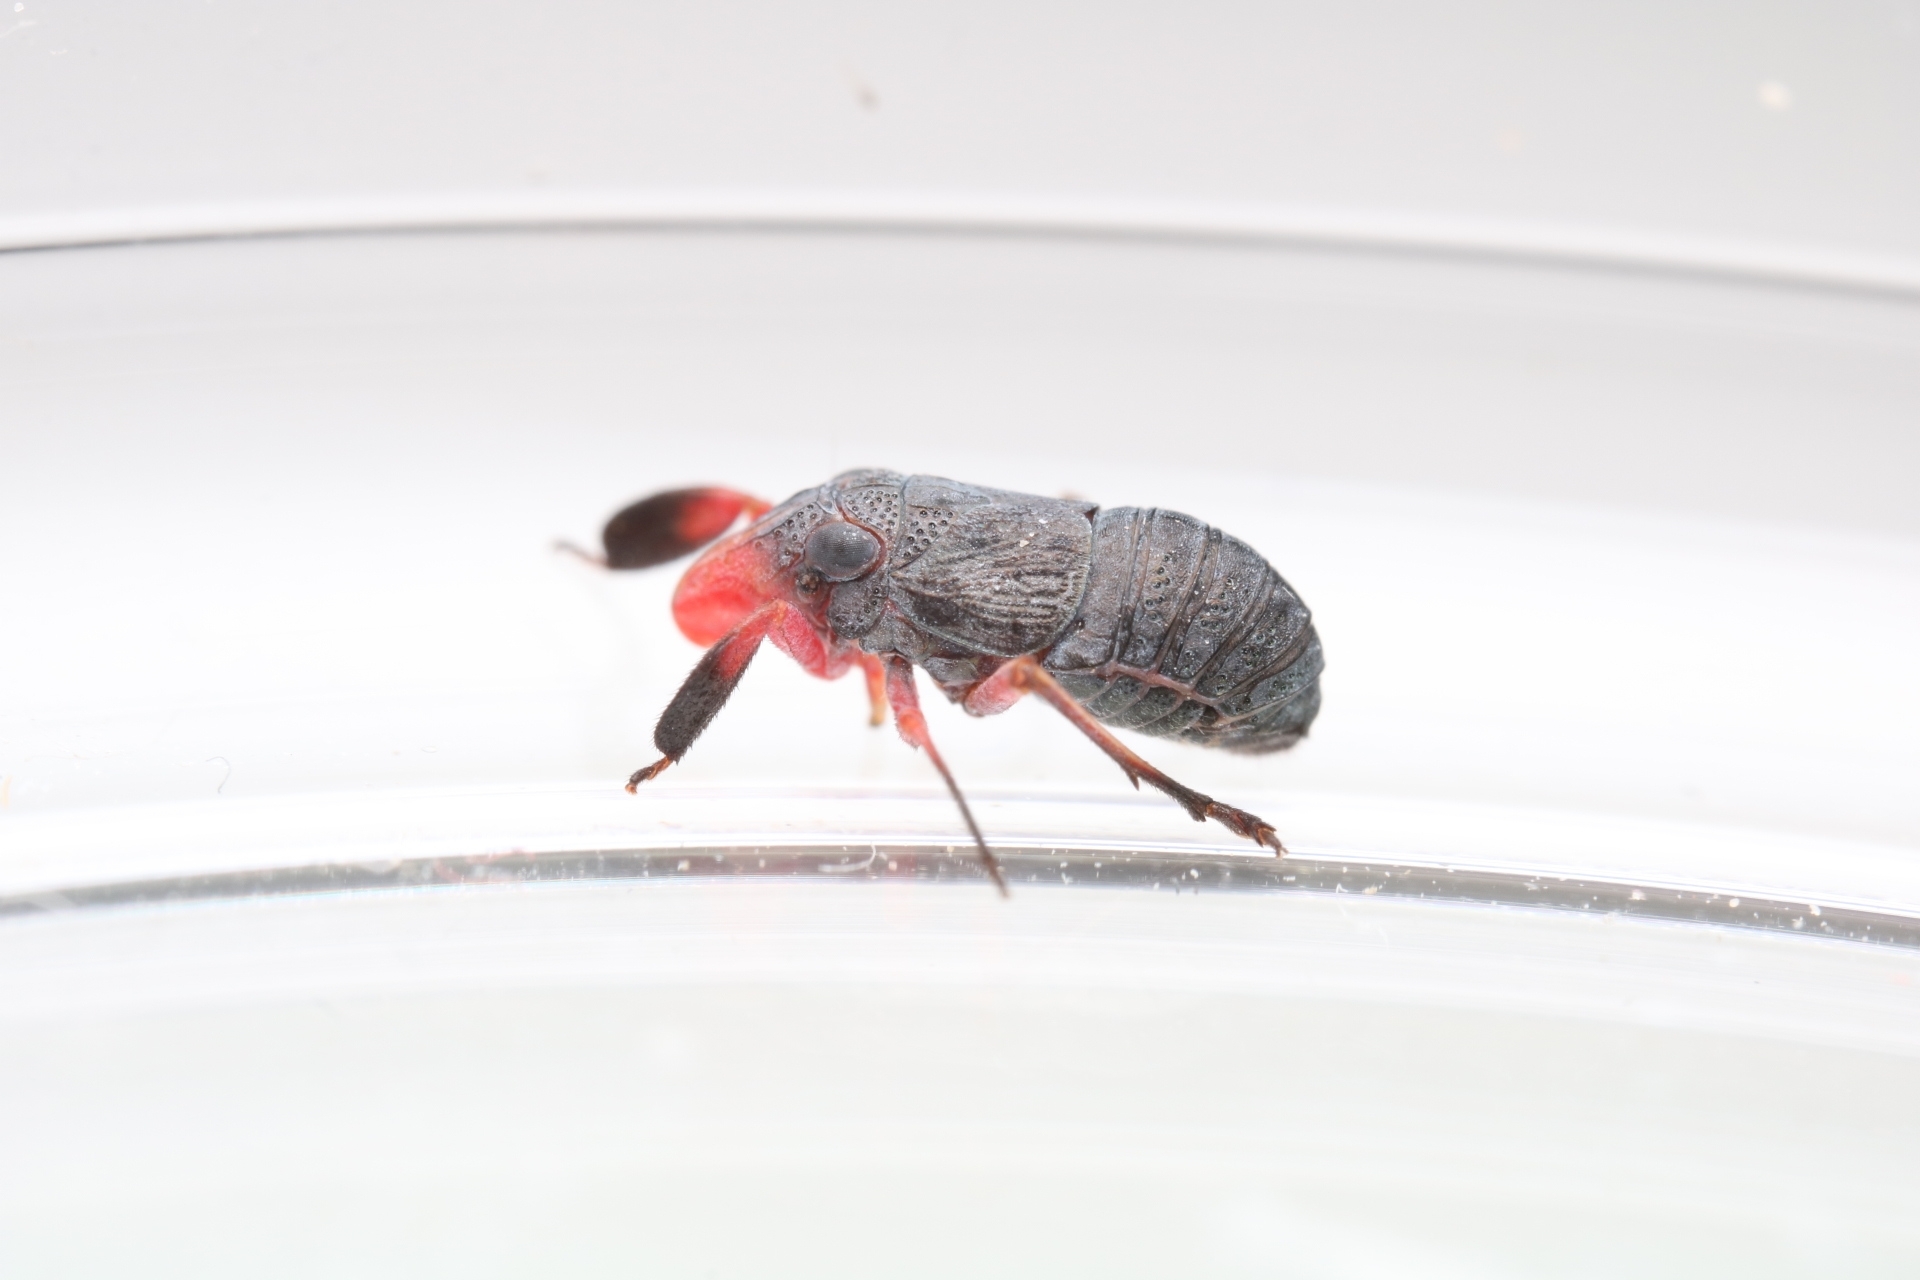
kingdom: Animalia
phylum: Arthropoda
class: Insecta
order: Hemiptera
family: Caliscelidae
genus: Fitchiella
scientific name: Fitchiella rufipes
